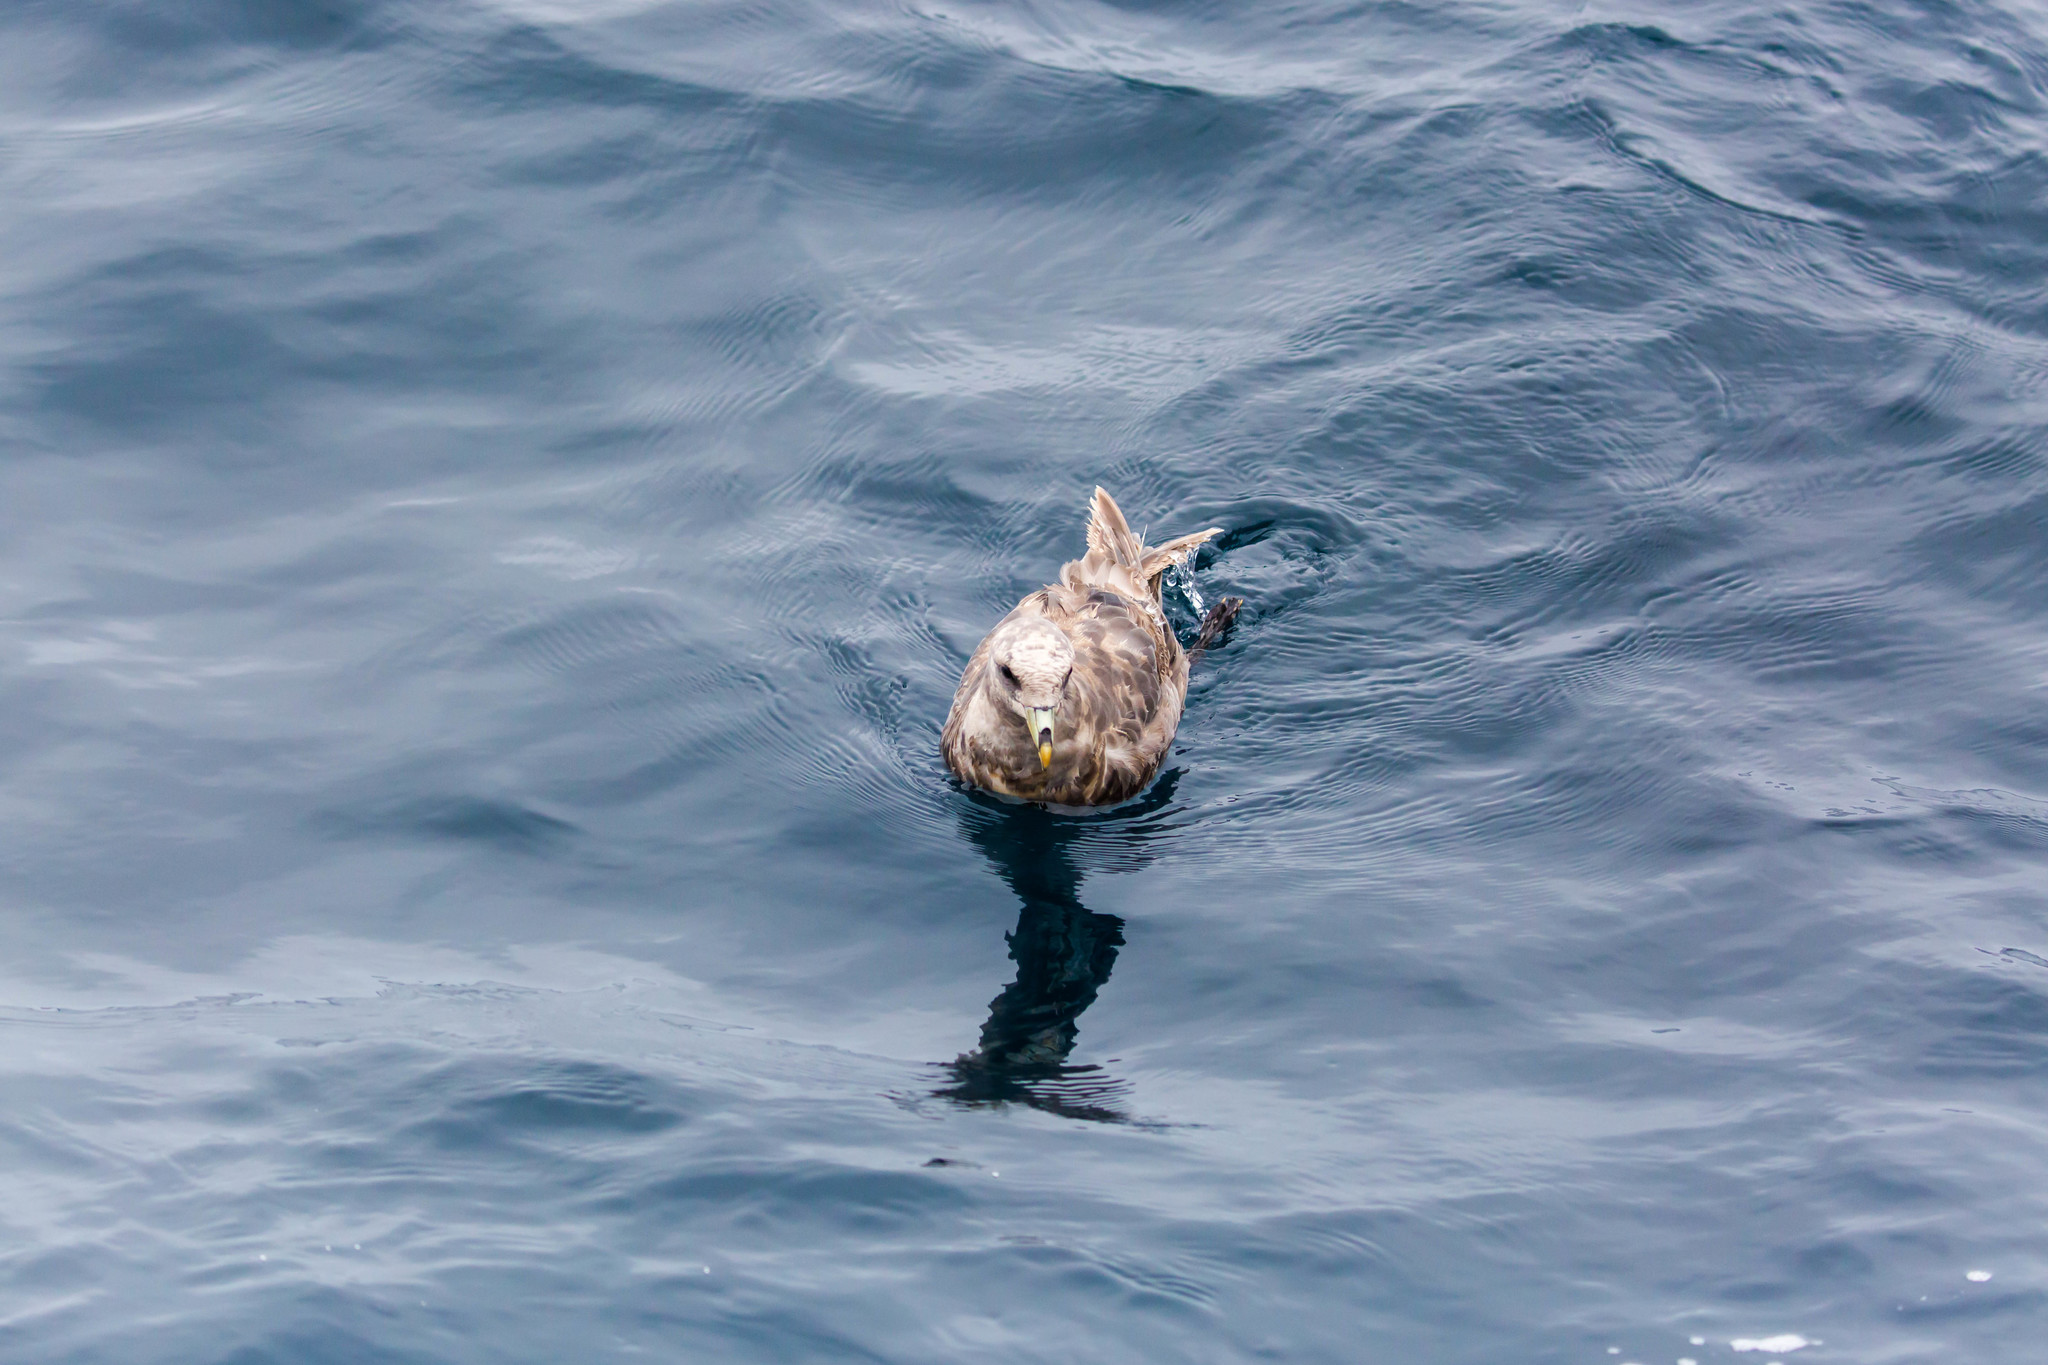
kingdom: Animalia
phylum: Chordata
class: Aves
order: Procellariiformes
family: Procellariidae
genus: Fulmarus
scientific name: Fulmarus glacialis
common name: Northern fulmar
